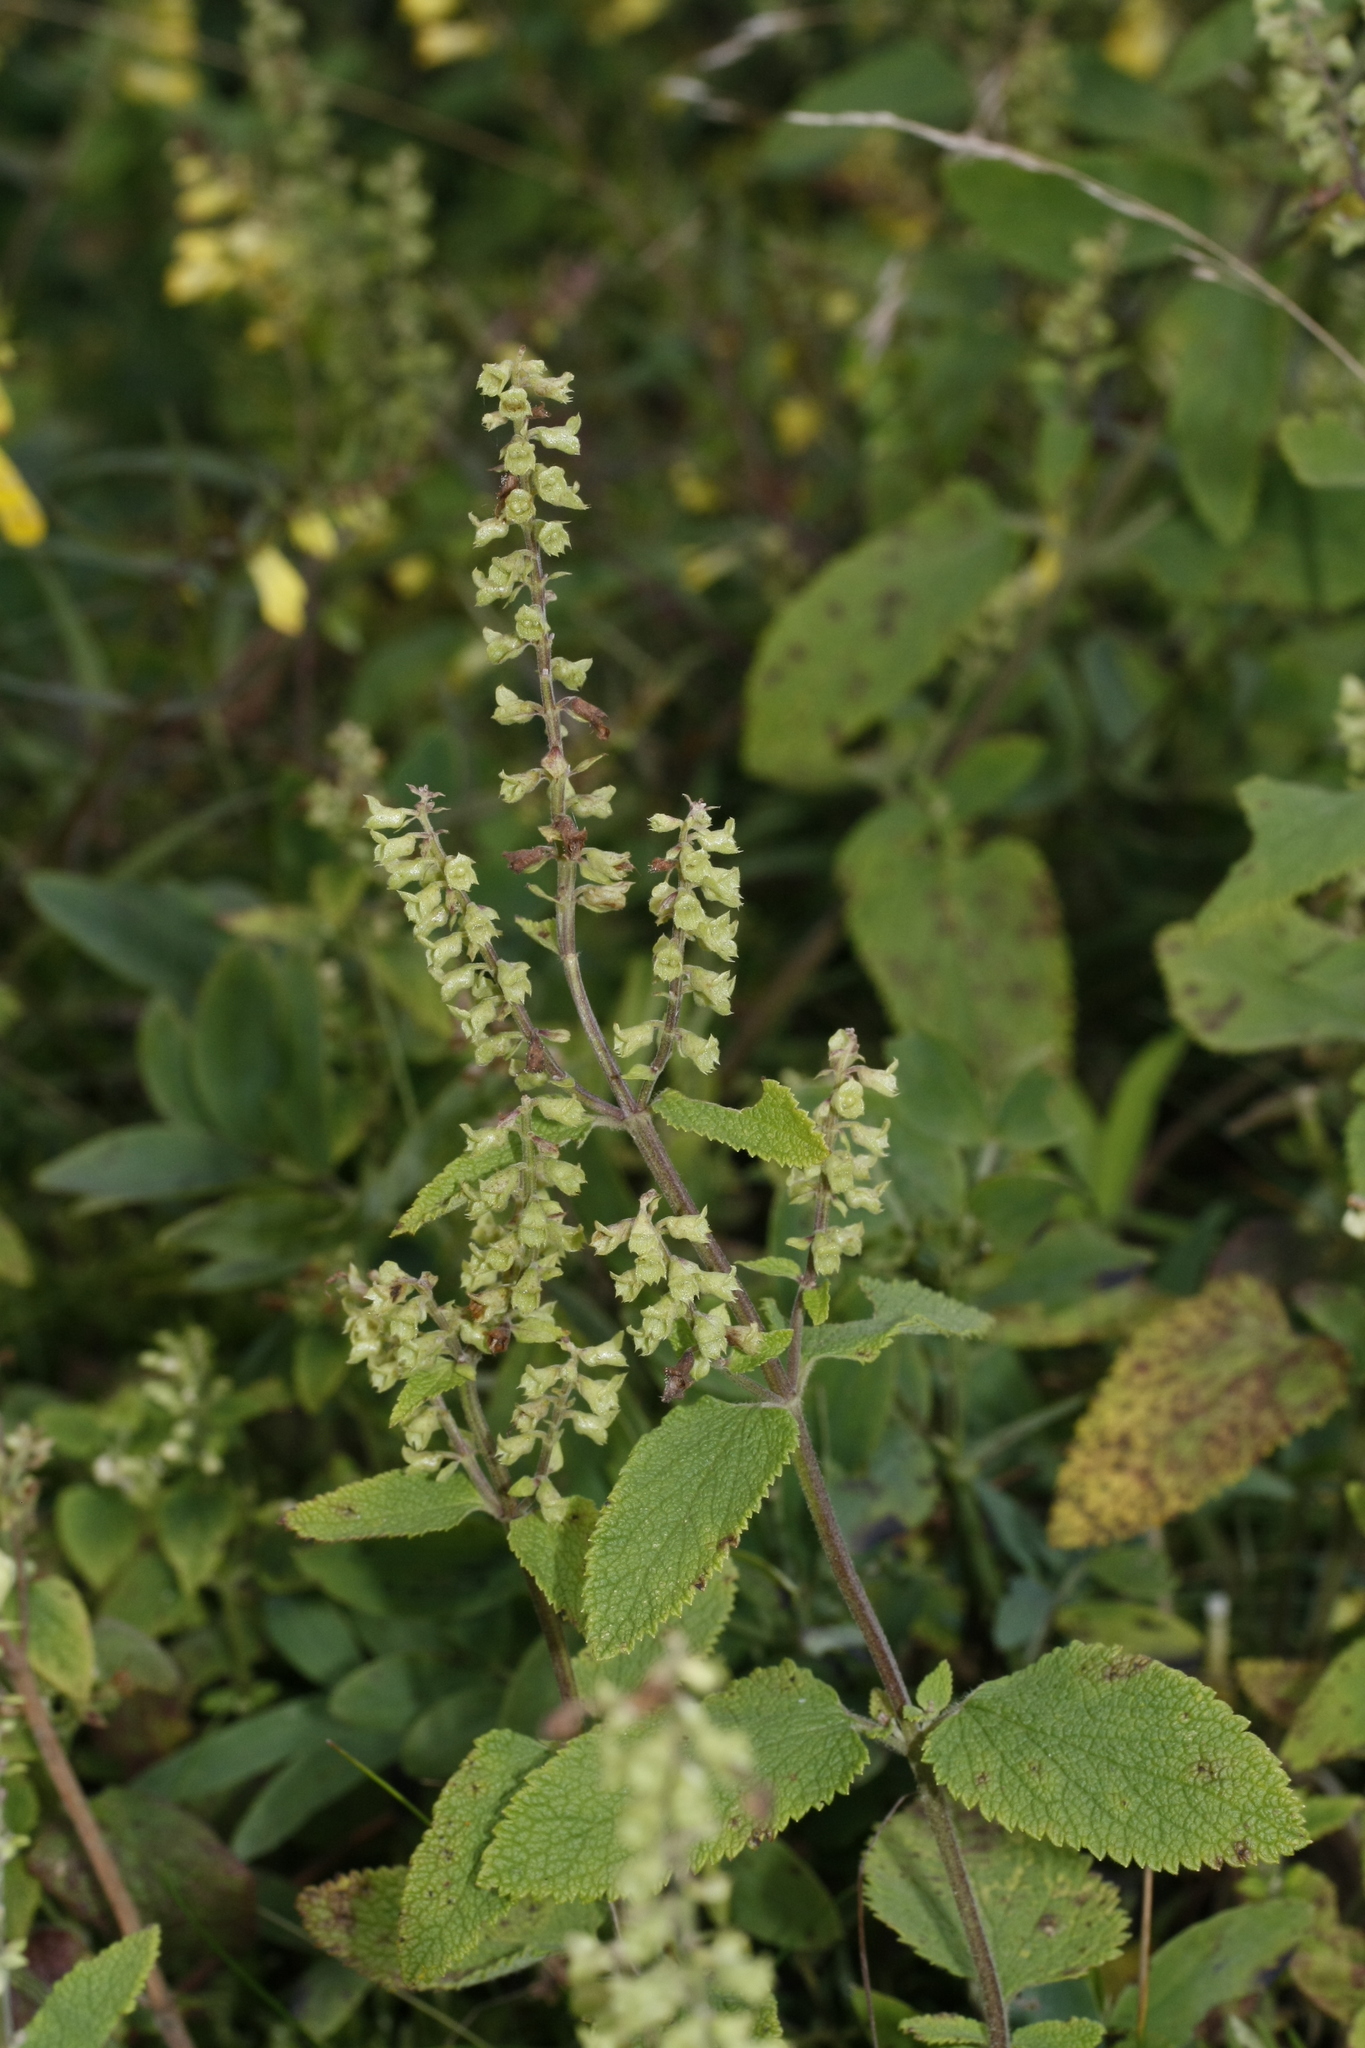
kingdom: Plantae
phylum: Tracheophyta
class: Magnoliopsida
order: Lamiales
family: Lamiaceae
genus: Teucrium
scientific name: Teucrium scorodonia
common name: Woodland germander
